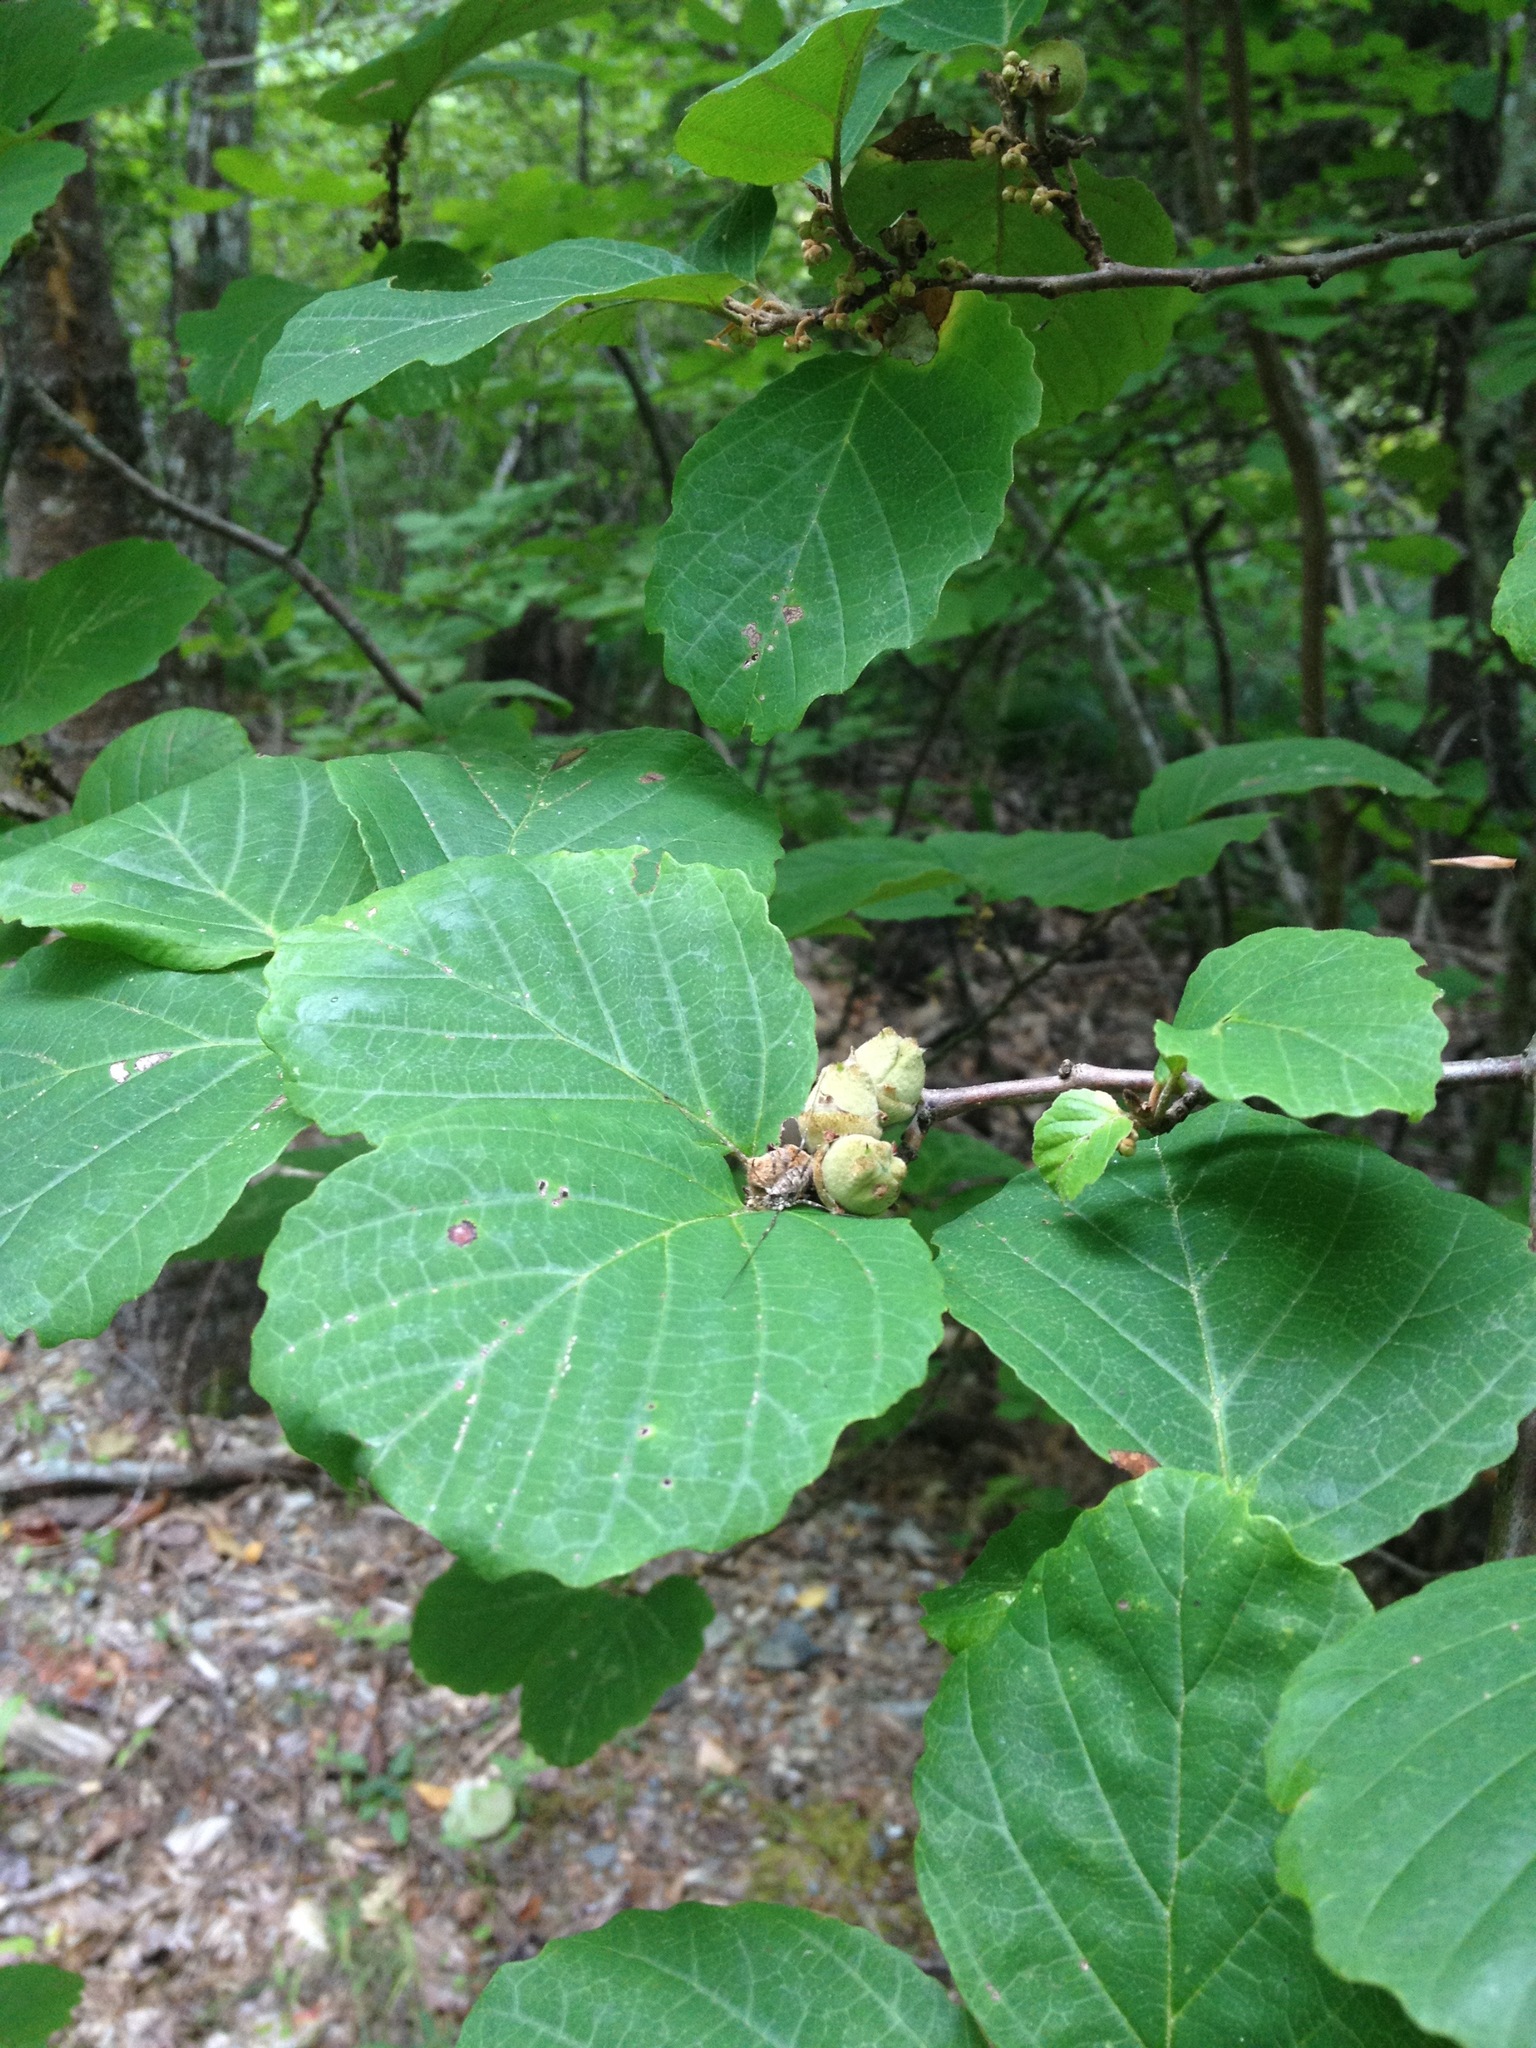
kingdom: Plantae
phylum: Tracheophyta
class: Magnoliopsida
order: Saxifragales
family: Hamamelidaceae
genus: Hamamelis
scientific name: Hamamelis virginiana
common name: Witch-hazel
